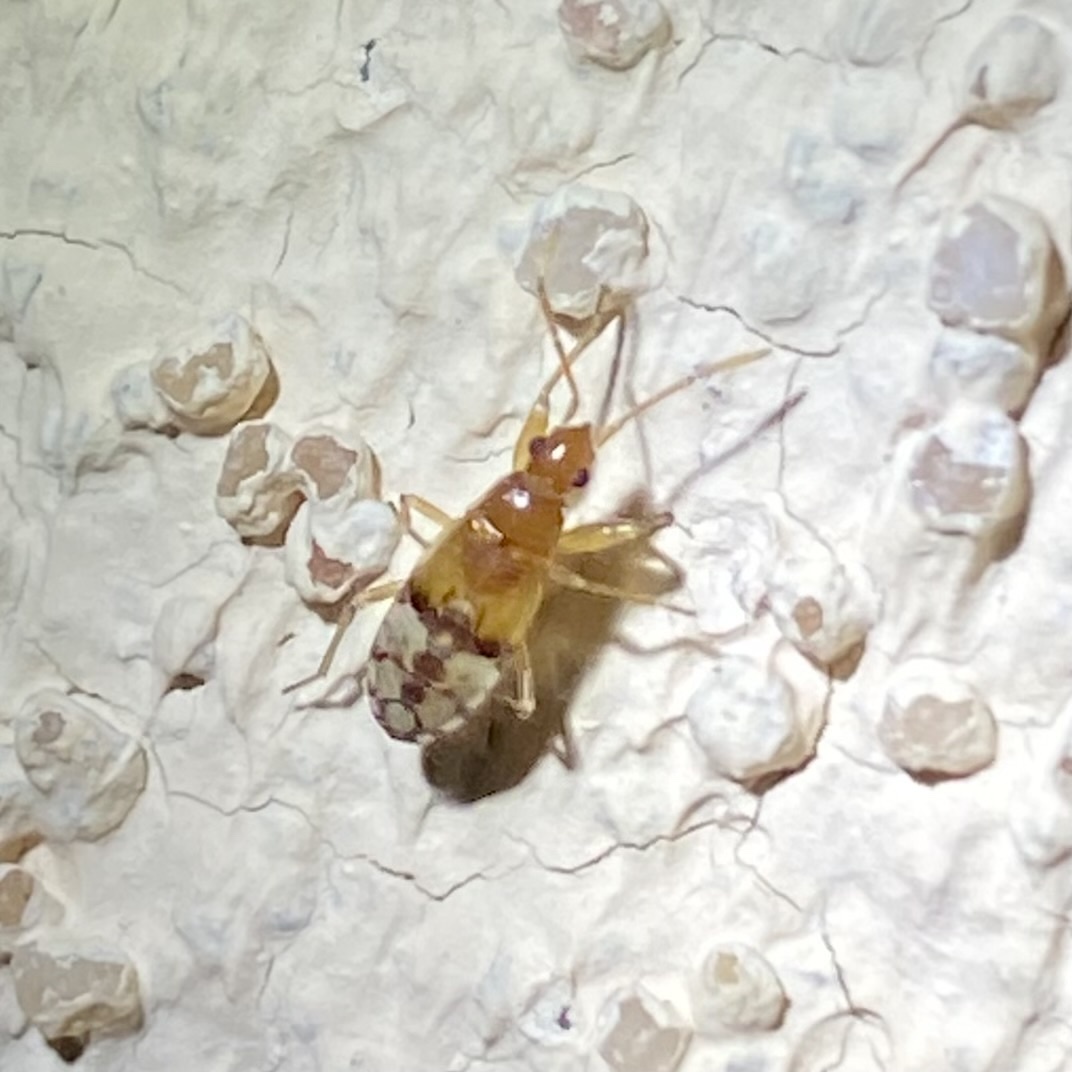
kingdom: Animalia
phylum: Arthropoda
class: Insecta
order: Hemiptera
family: Rhyparochromidae
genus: Pseudopamera
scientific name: Pseudopamera
